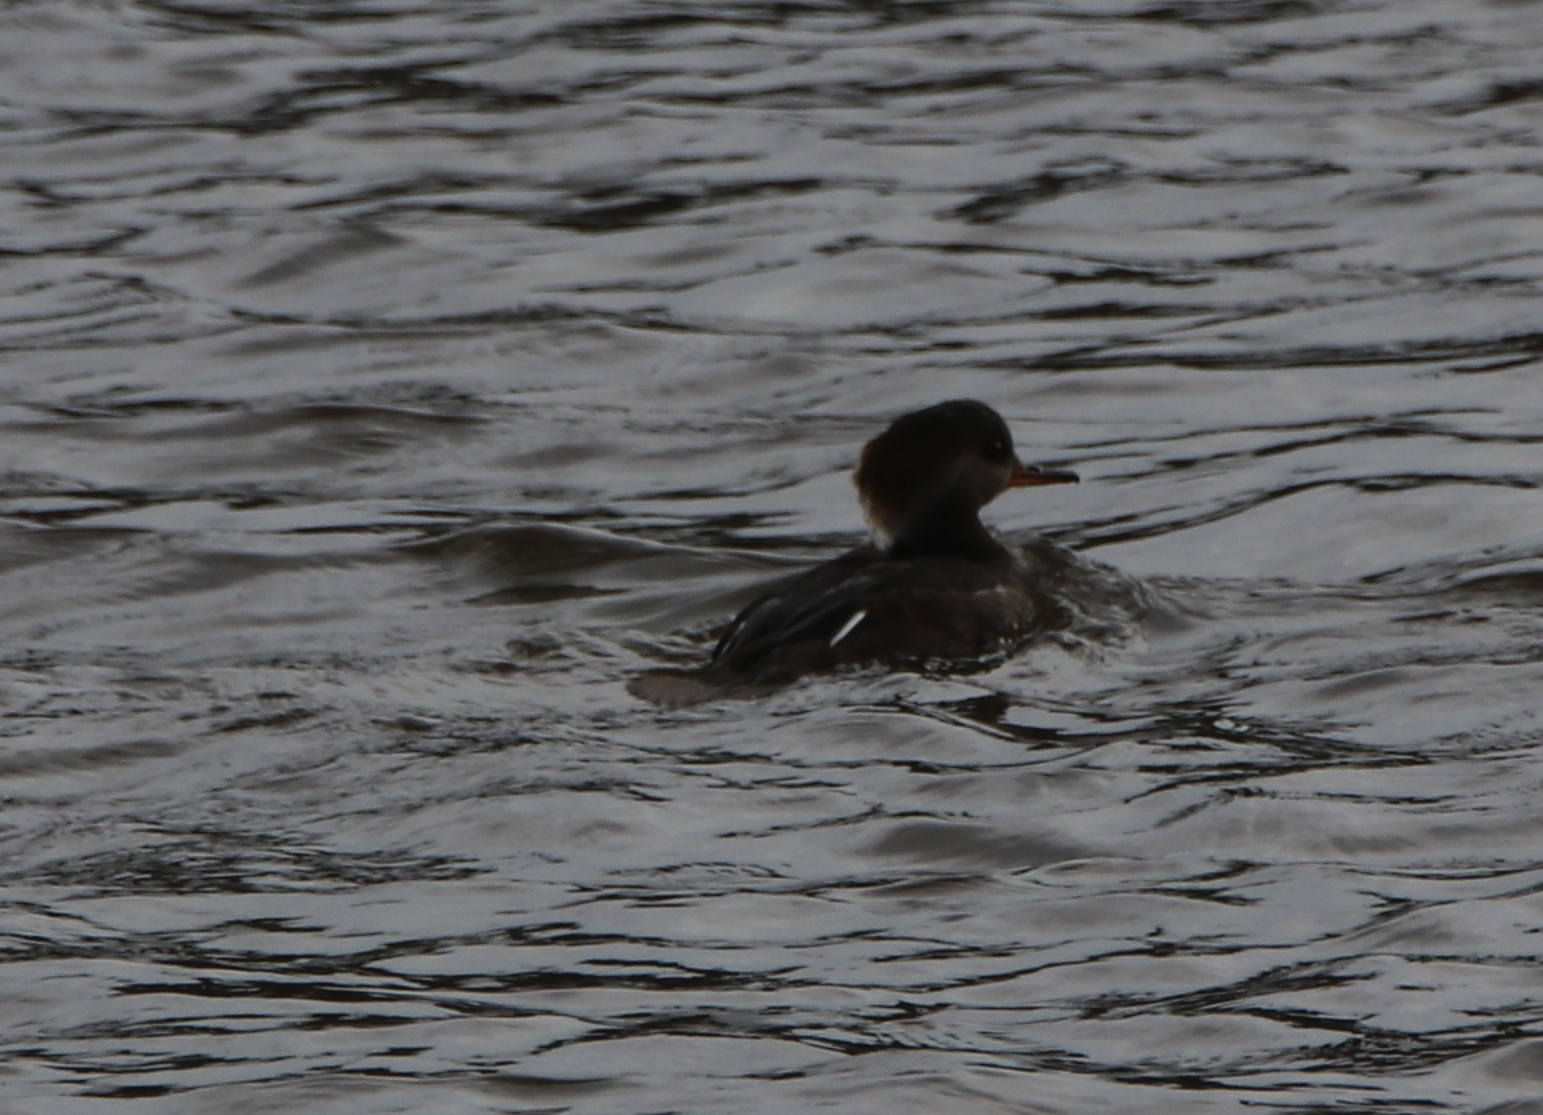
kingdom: Animalia
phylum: Chordata
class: Aves
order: Anseriformes
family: Anatidae
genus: Lophodytes
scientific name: Lophodytes cucullatus
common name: Hooded merganser
